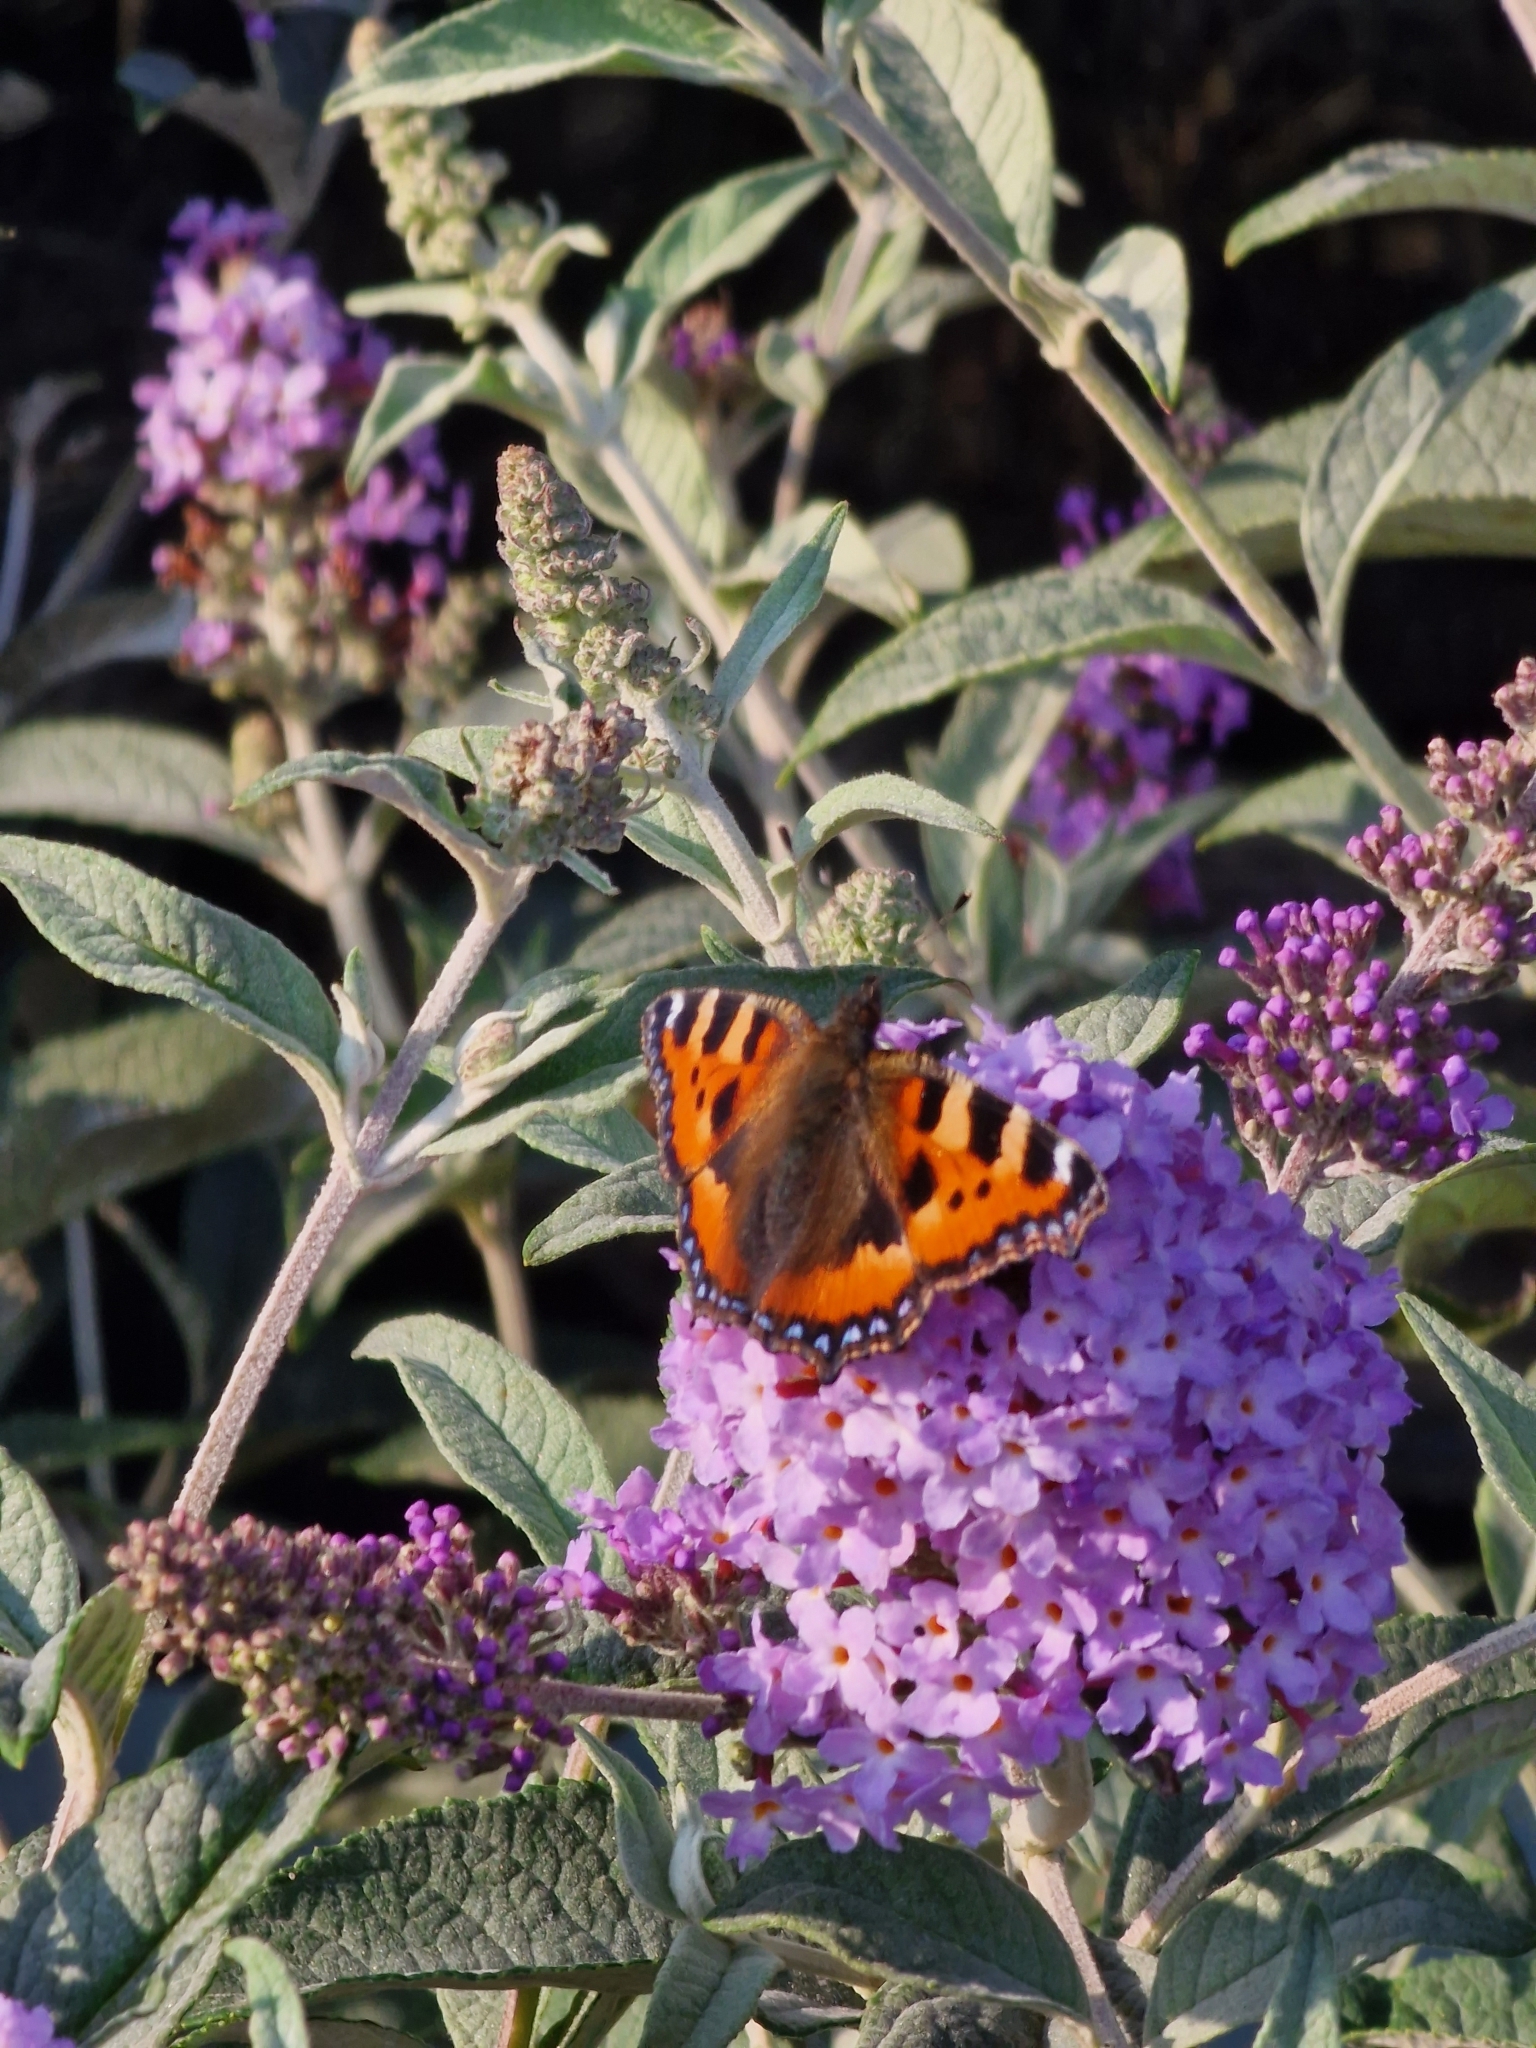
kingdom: Animalia
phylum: Arthropoda
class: Insecta
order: Lepidoptera
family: Nymphalidae
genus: Aglais
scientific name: Aglais urticae
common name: Small tortoiseshell
